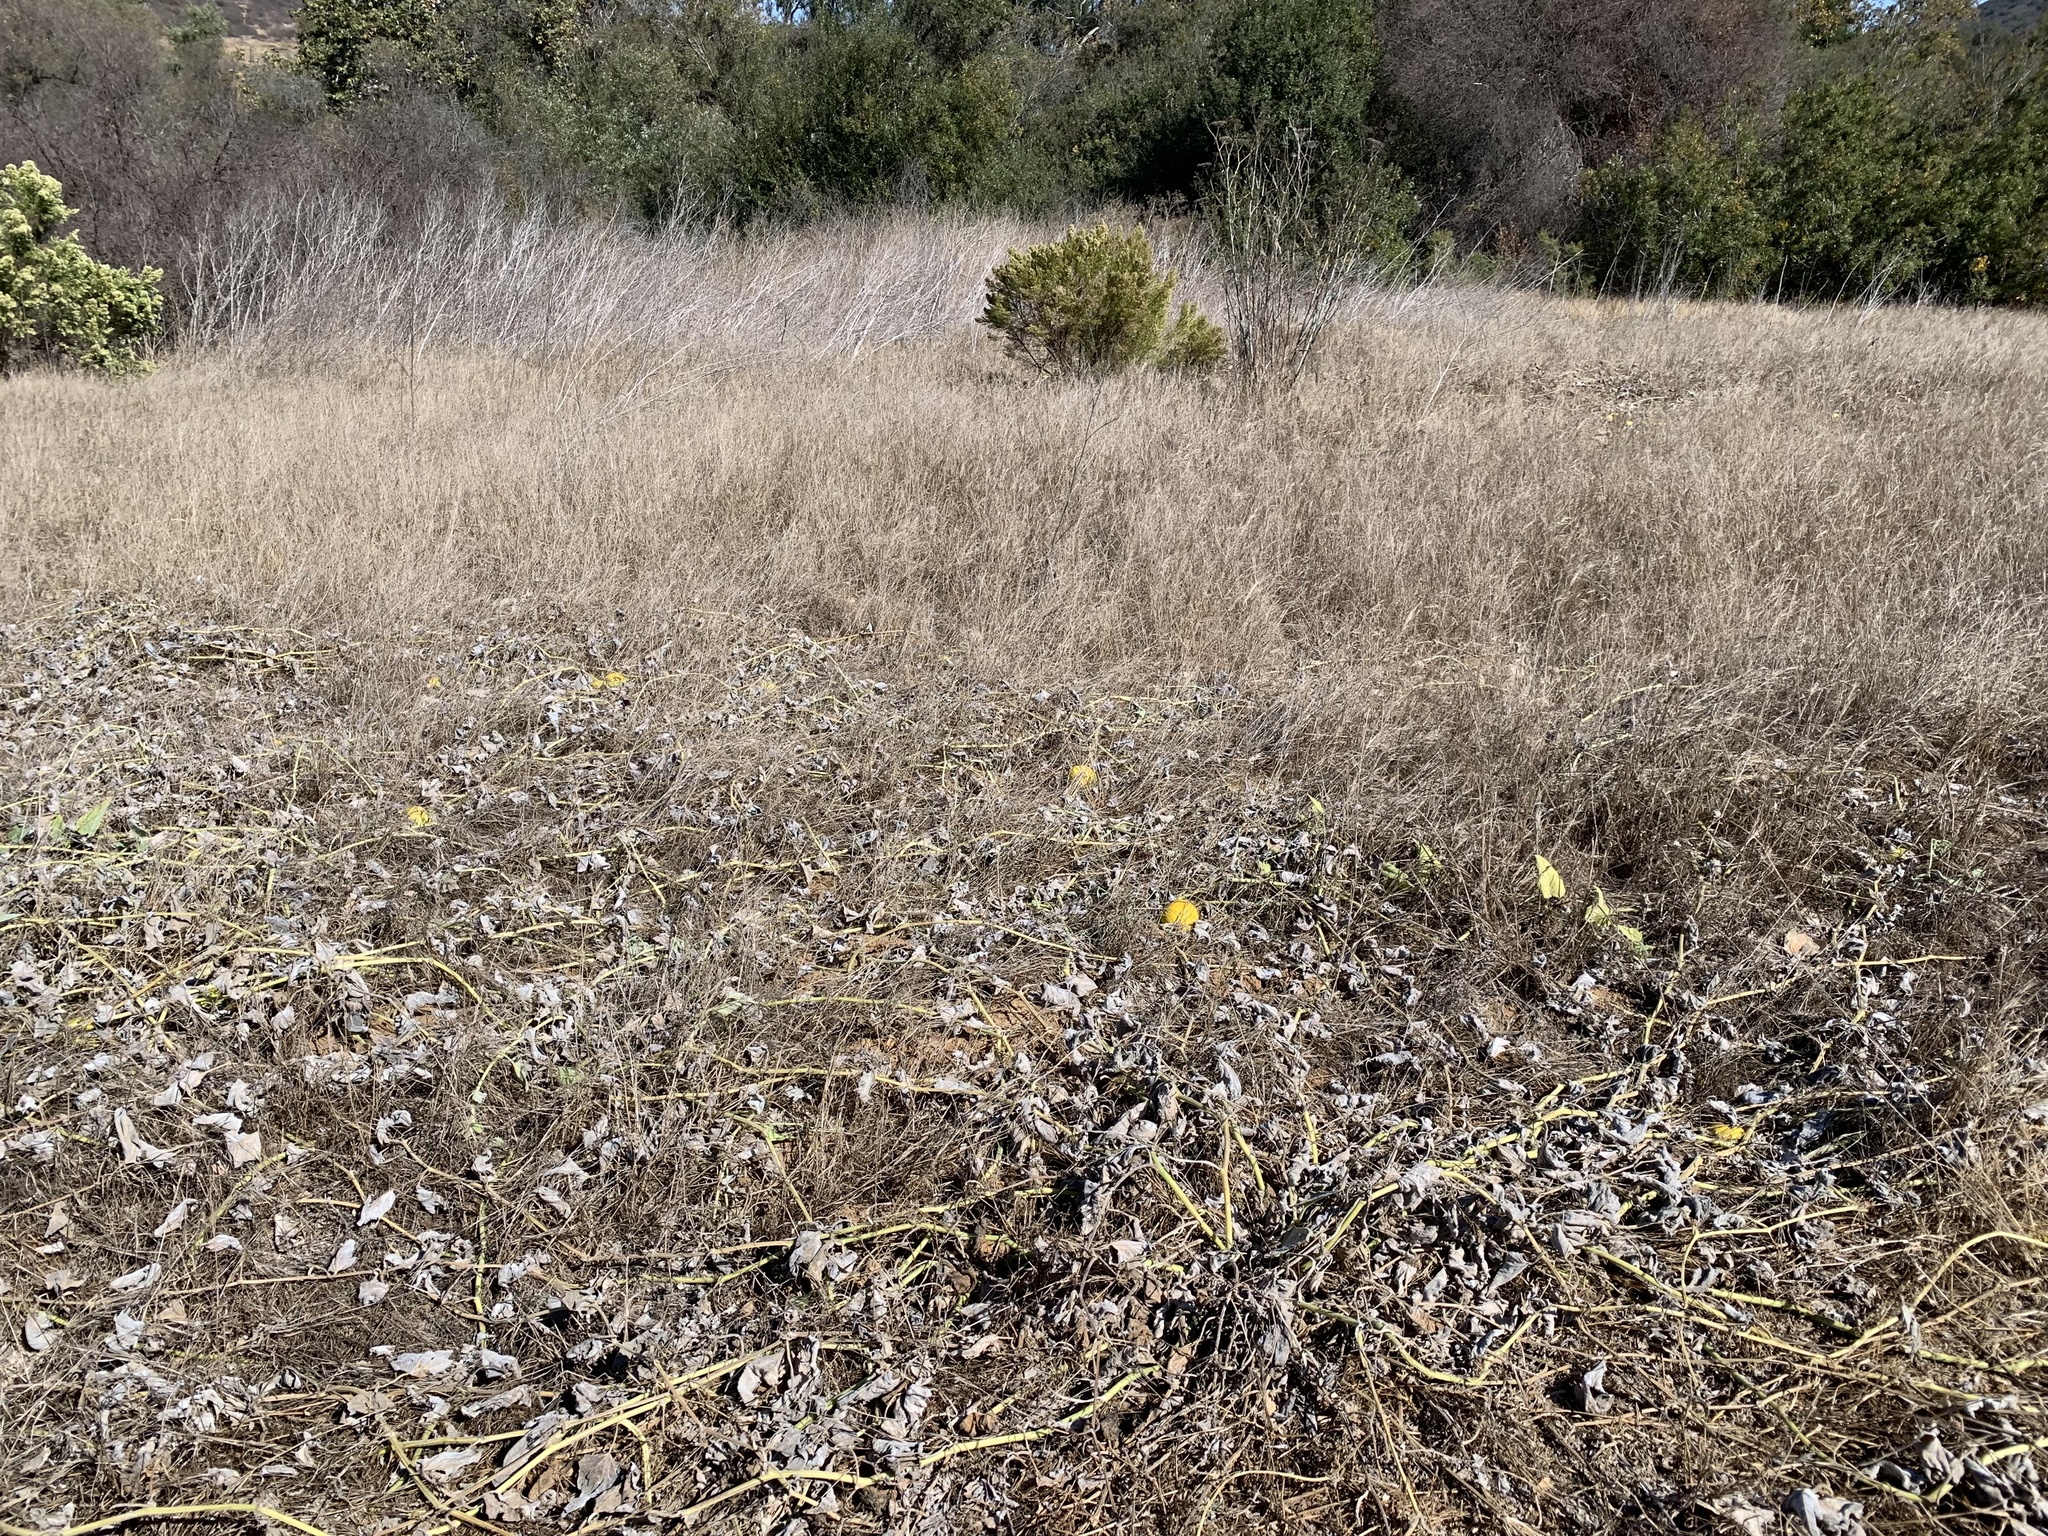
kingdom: Plantae
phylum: Tracheophyta
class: Magnoliopsida
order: Cucurbitales
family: Cucurbitaceae
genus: Cucurbita
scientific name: Cucurbita foetidissima
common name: Buffalo gourd
